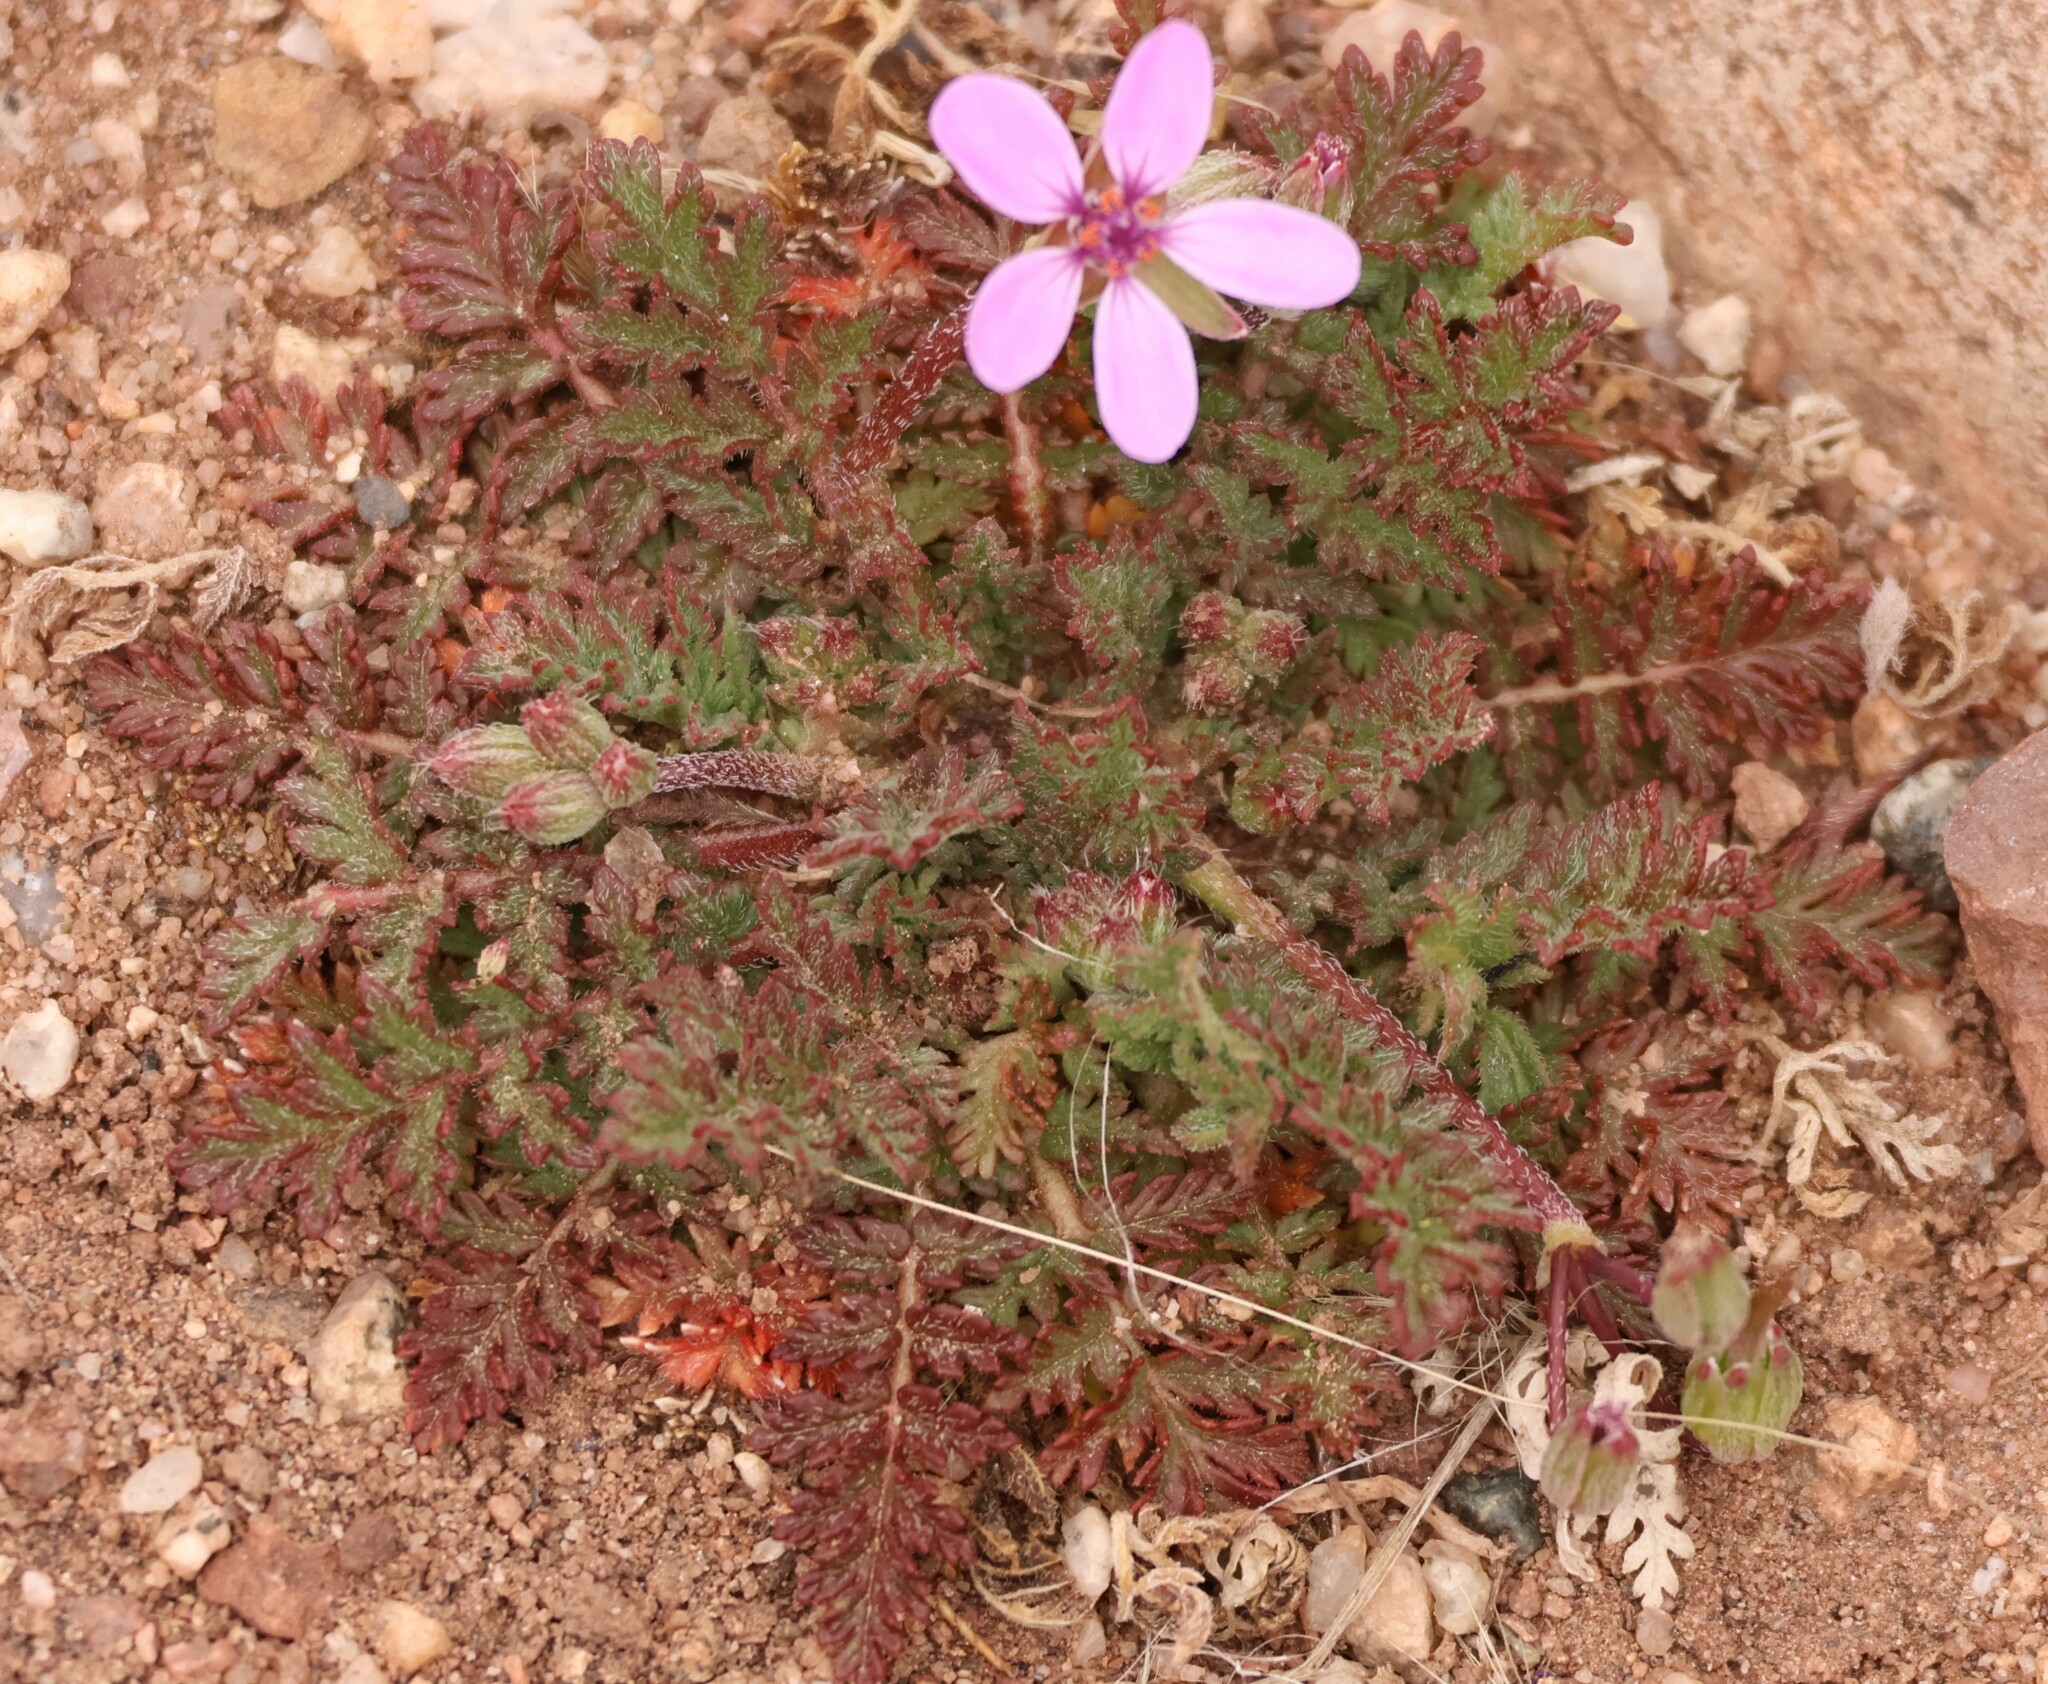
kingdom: Plantae
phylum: Tracheophyta
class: Magnoliopsida
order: Geraniales
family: Geraniaceae
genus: Erodium
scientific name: Erodium cicutarium
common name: Common stork's-bill
